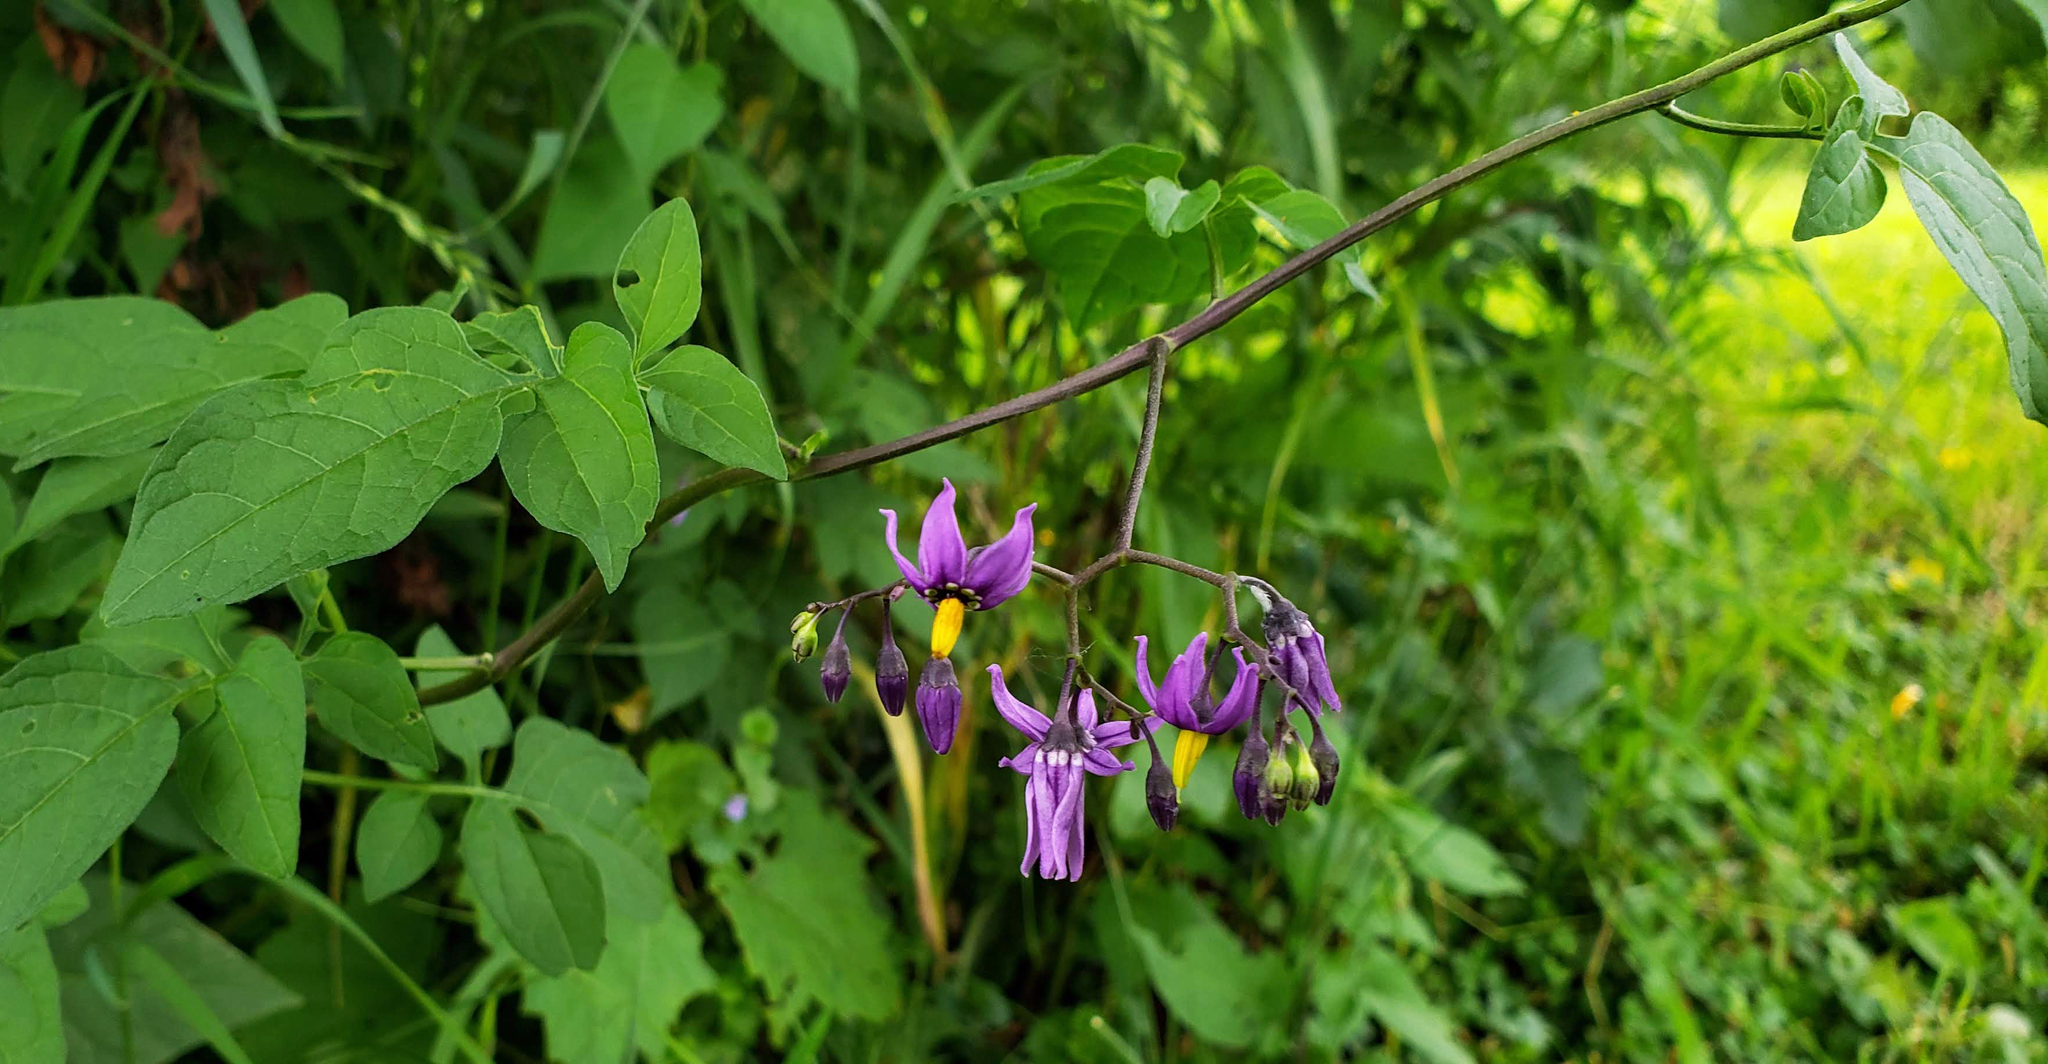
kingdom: Plantae
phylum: Tracheophyta
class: Magnoliopsida
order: Solanales
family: Solanaceae
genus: Solanum
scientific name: Solanum dulcamara
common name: Climbing nightshade
